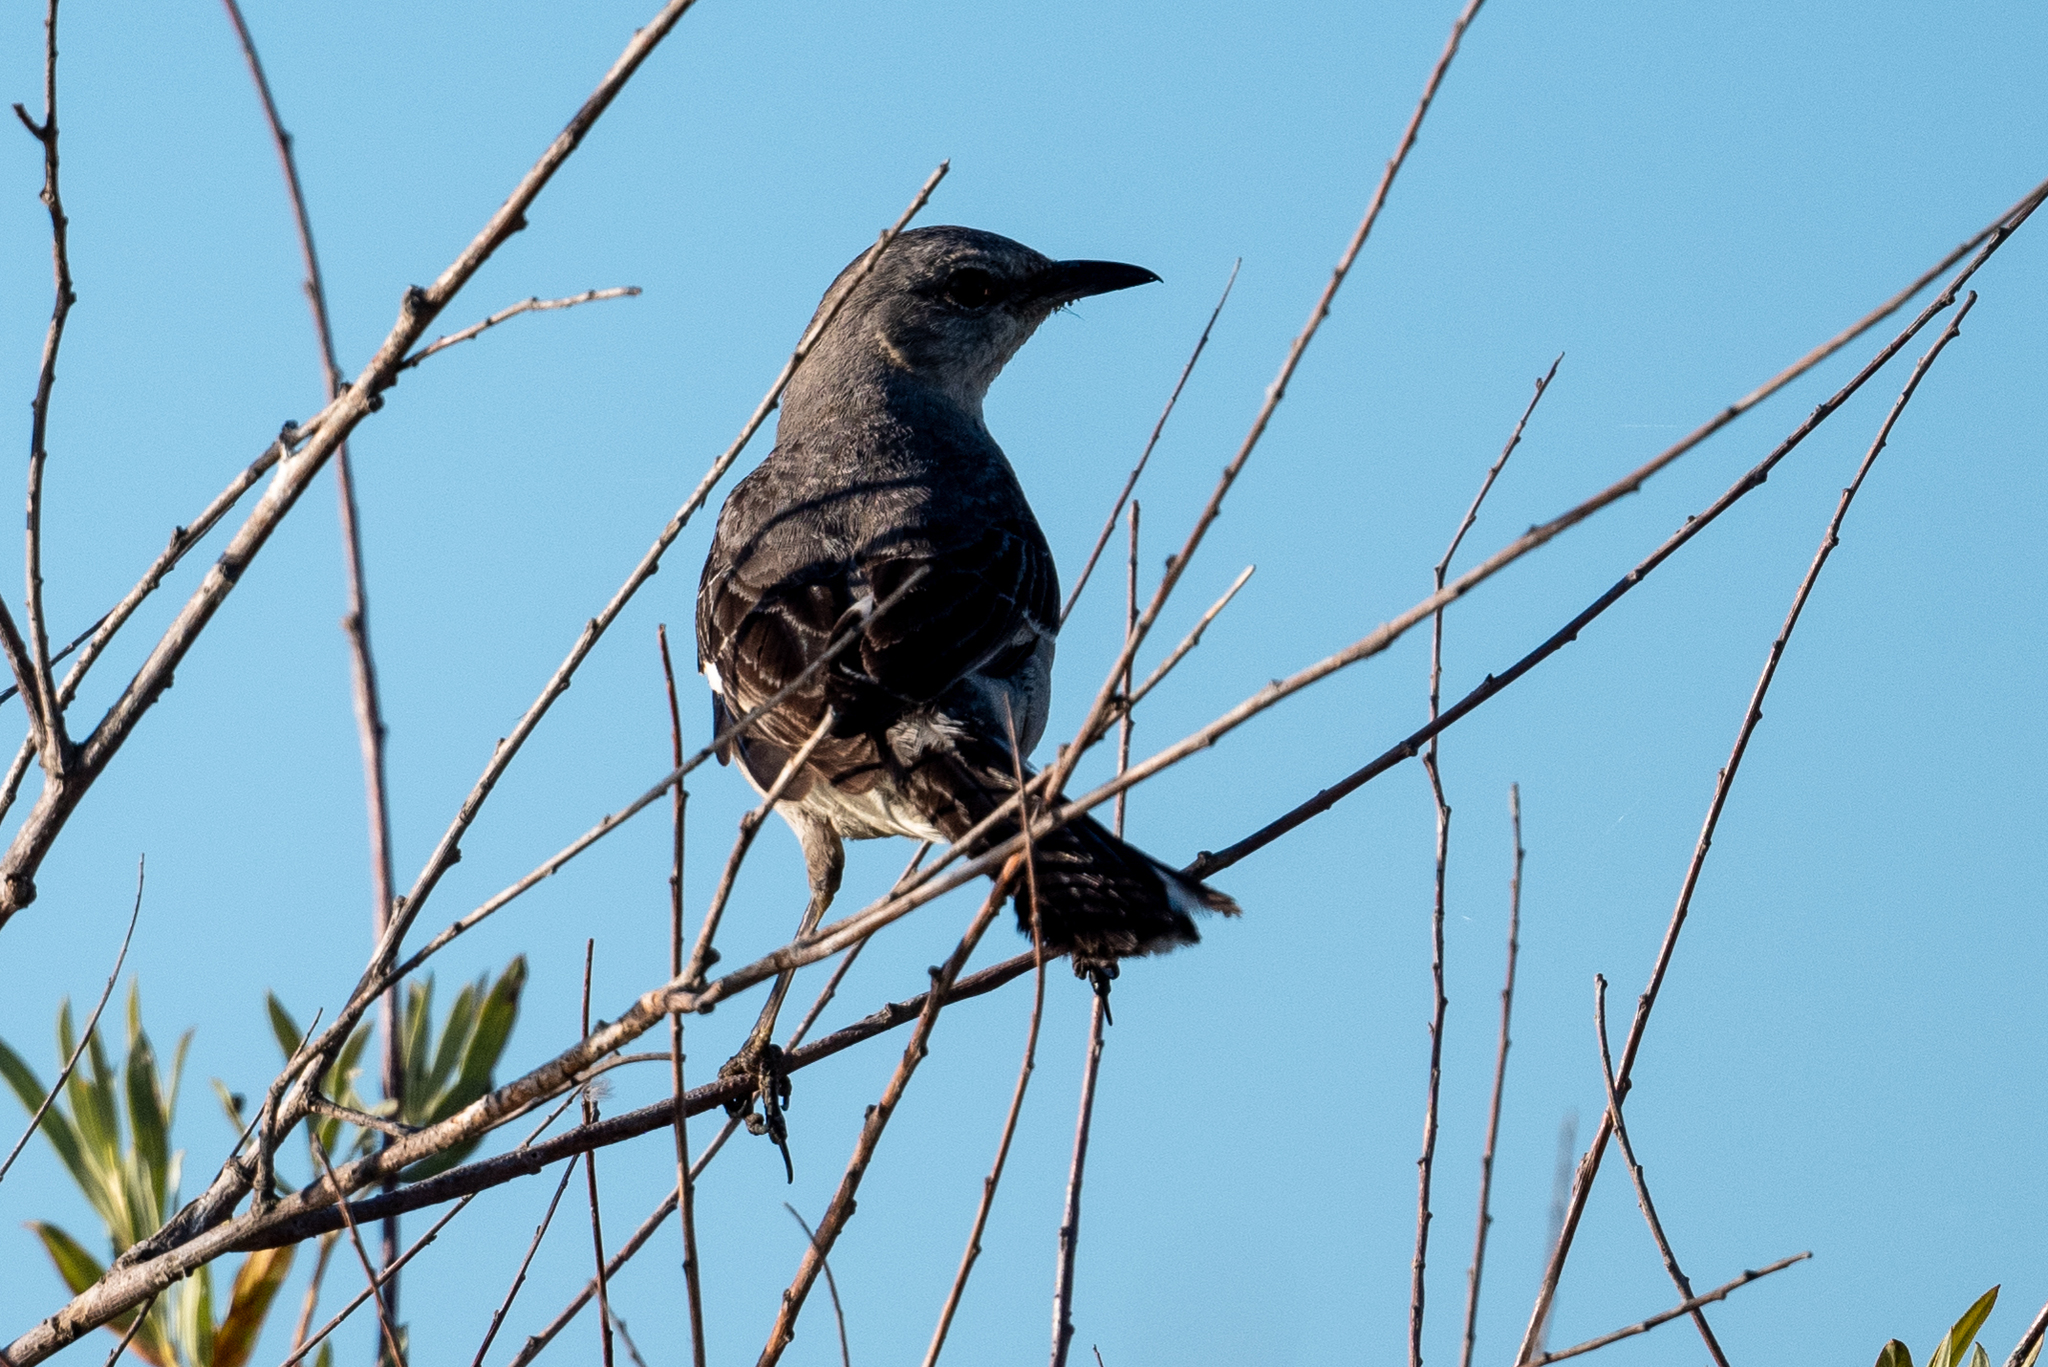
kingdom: Animalia
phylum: Chordata
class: Aves
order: Passeriformes
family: Mimidae
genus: Mimus
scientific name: Mimus polyglottos
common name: Northern mockingbird
